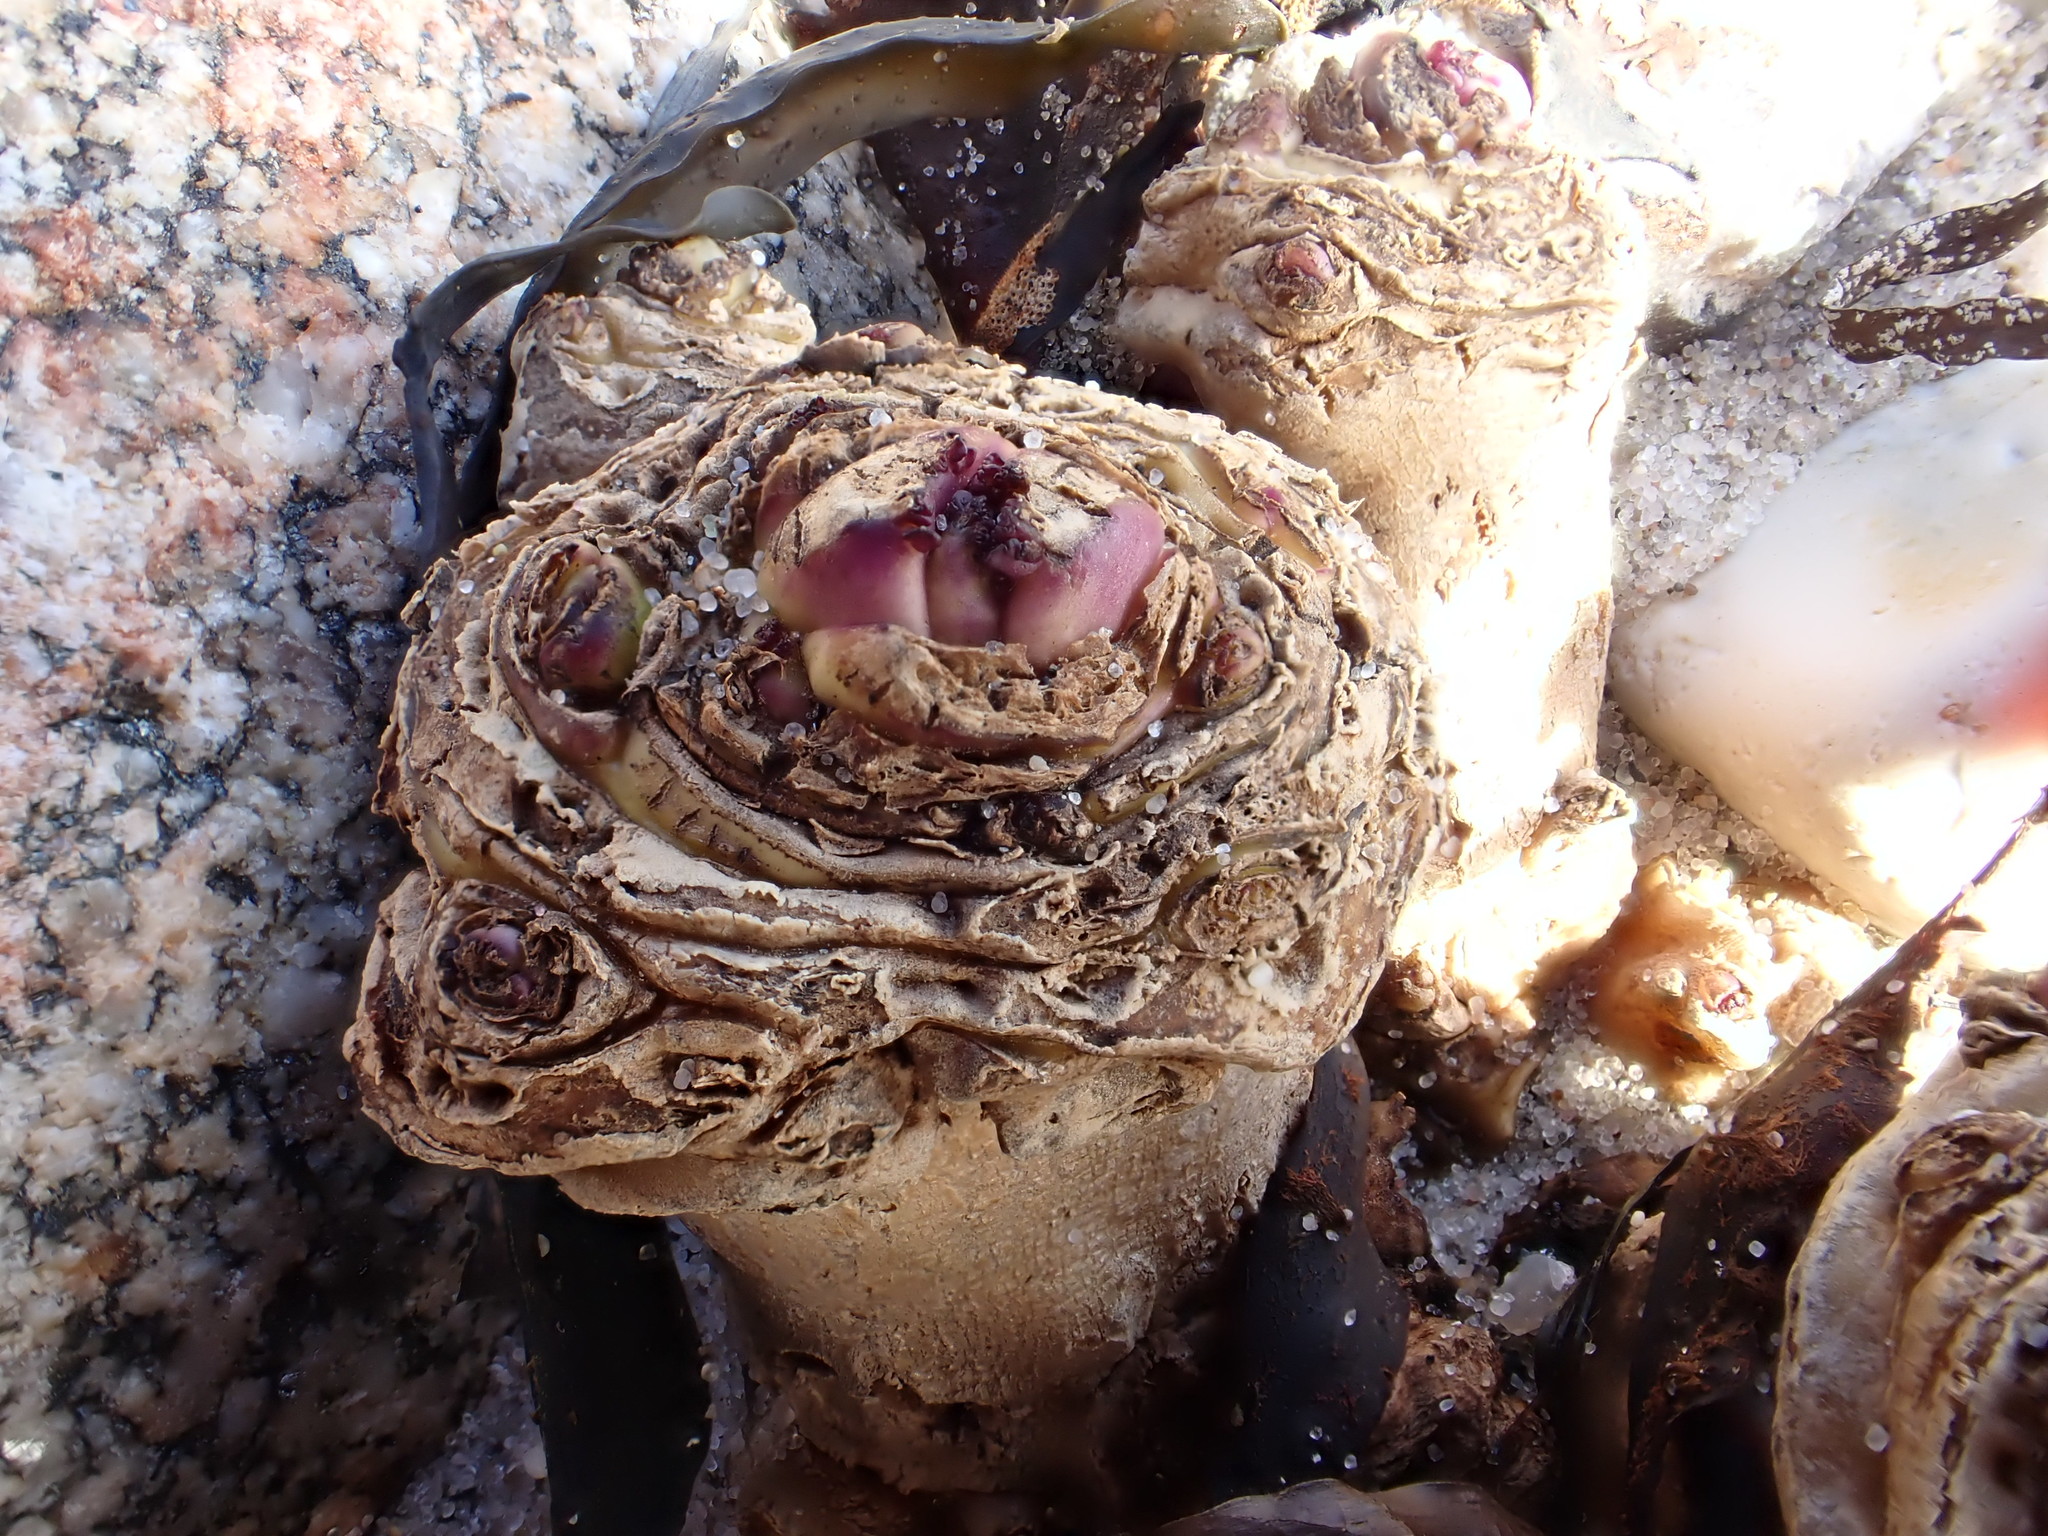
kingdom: Plantae
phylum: Tracheophyta
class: Magnoliopsida
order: Brassicales
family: Brassicaceae
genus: Crambe
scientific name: Crambe maritima
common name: Sea-kale
